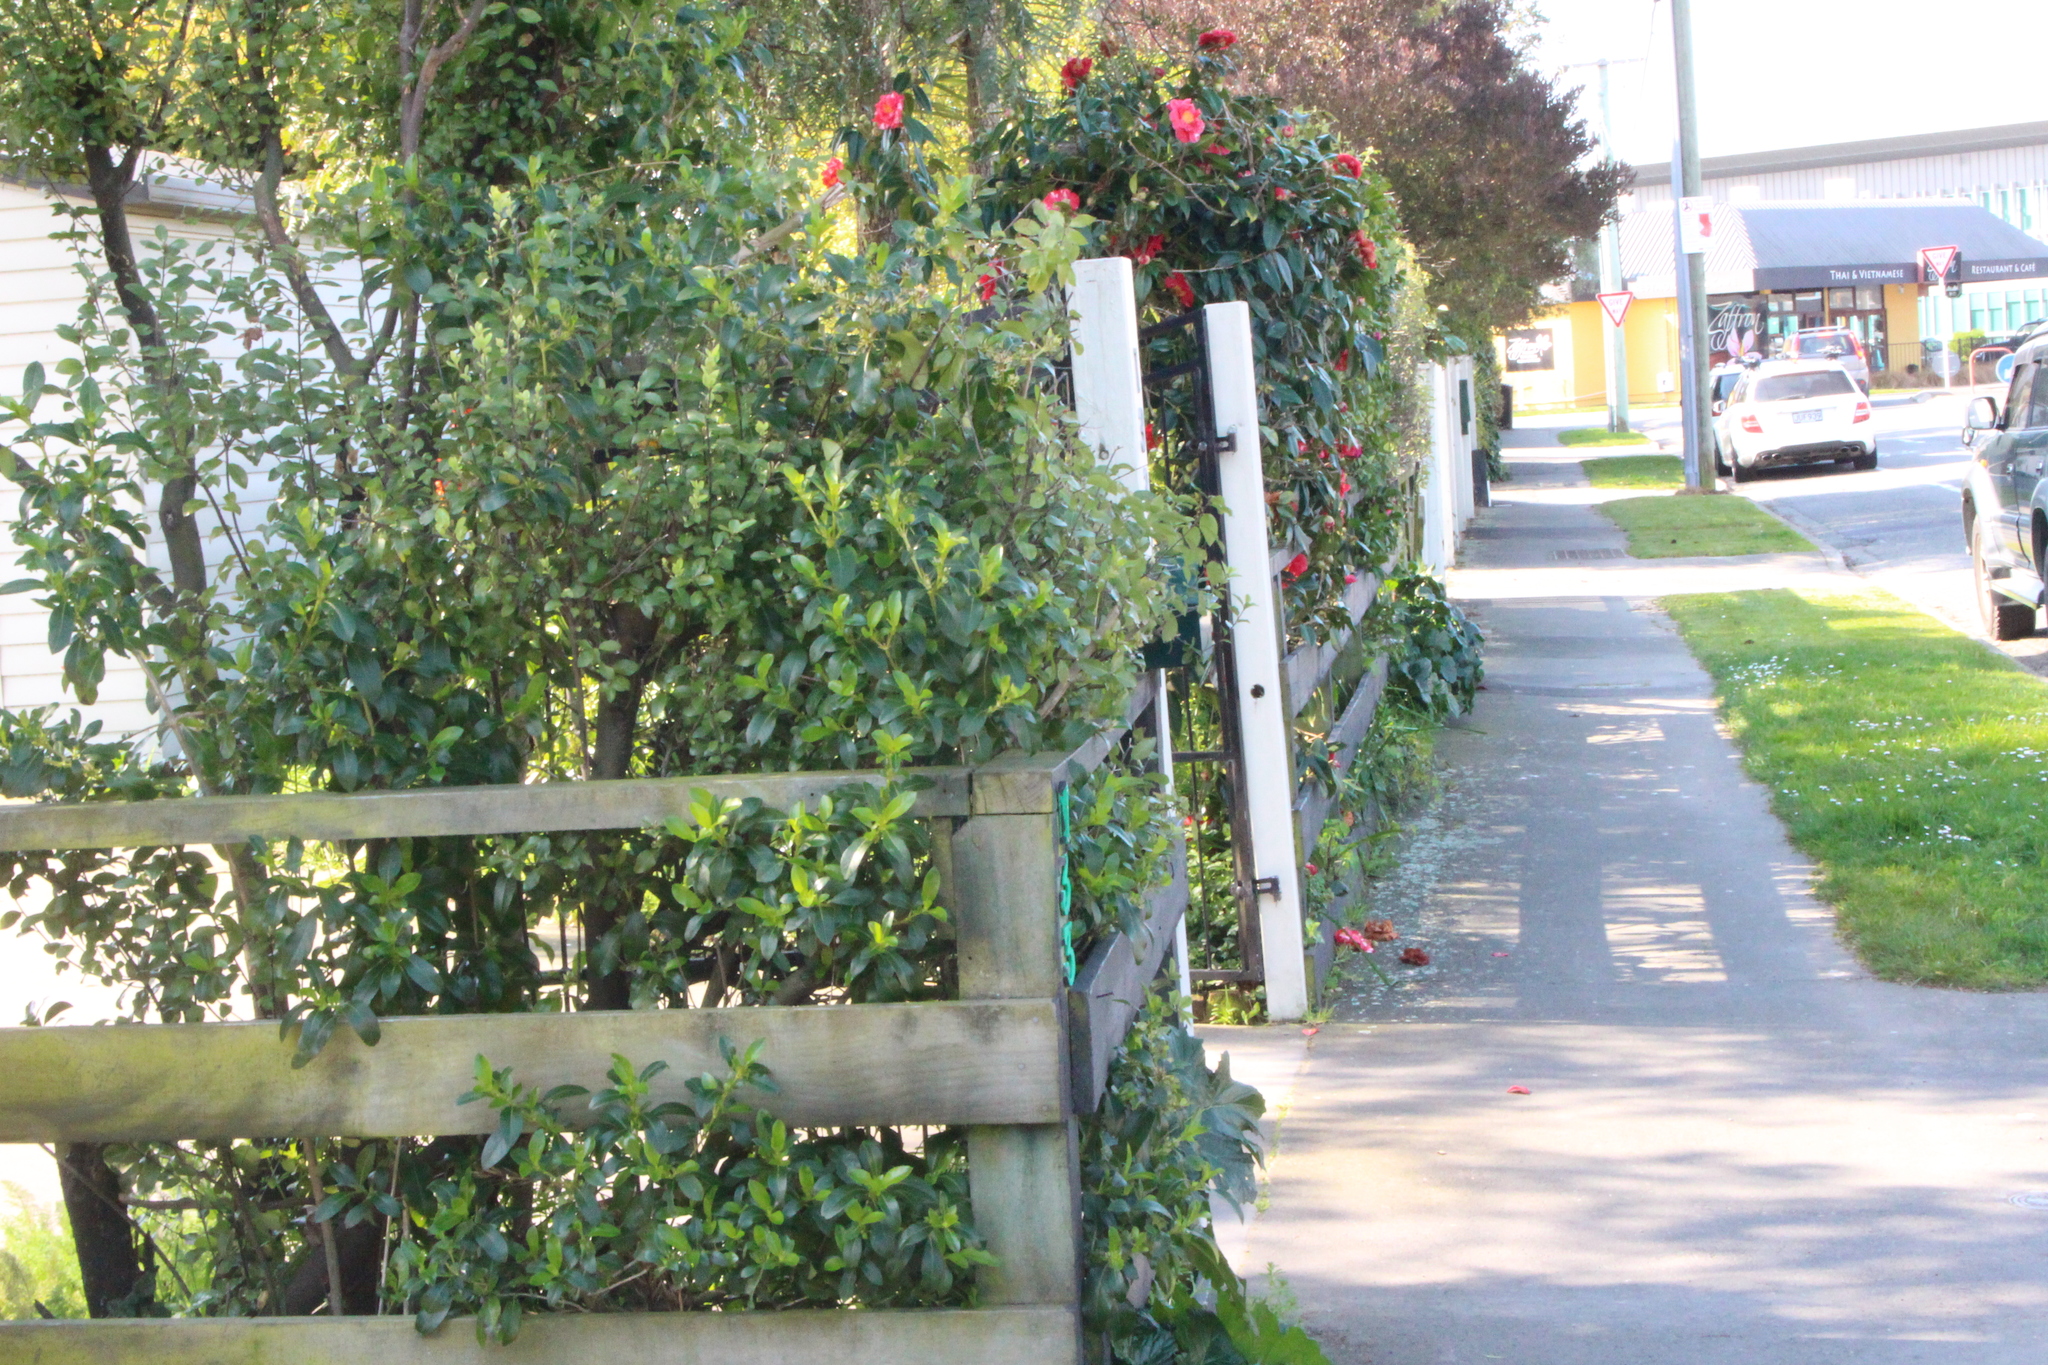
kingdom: Plantae
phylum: Tracheophyta
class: Magnoliopsida
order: Gentianales
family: Rubiaceae
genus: Coprosma
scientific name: Coprosma robusta
